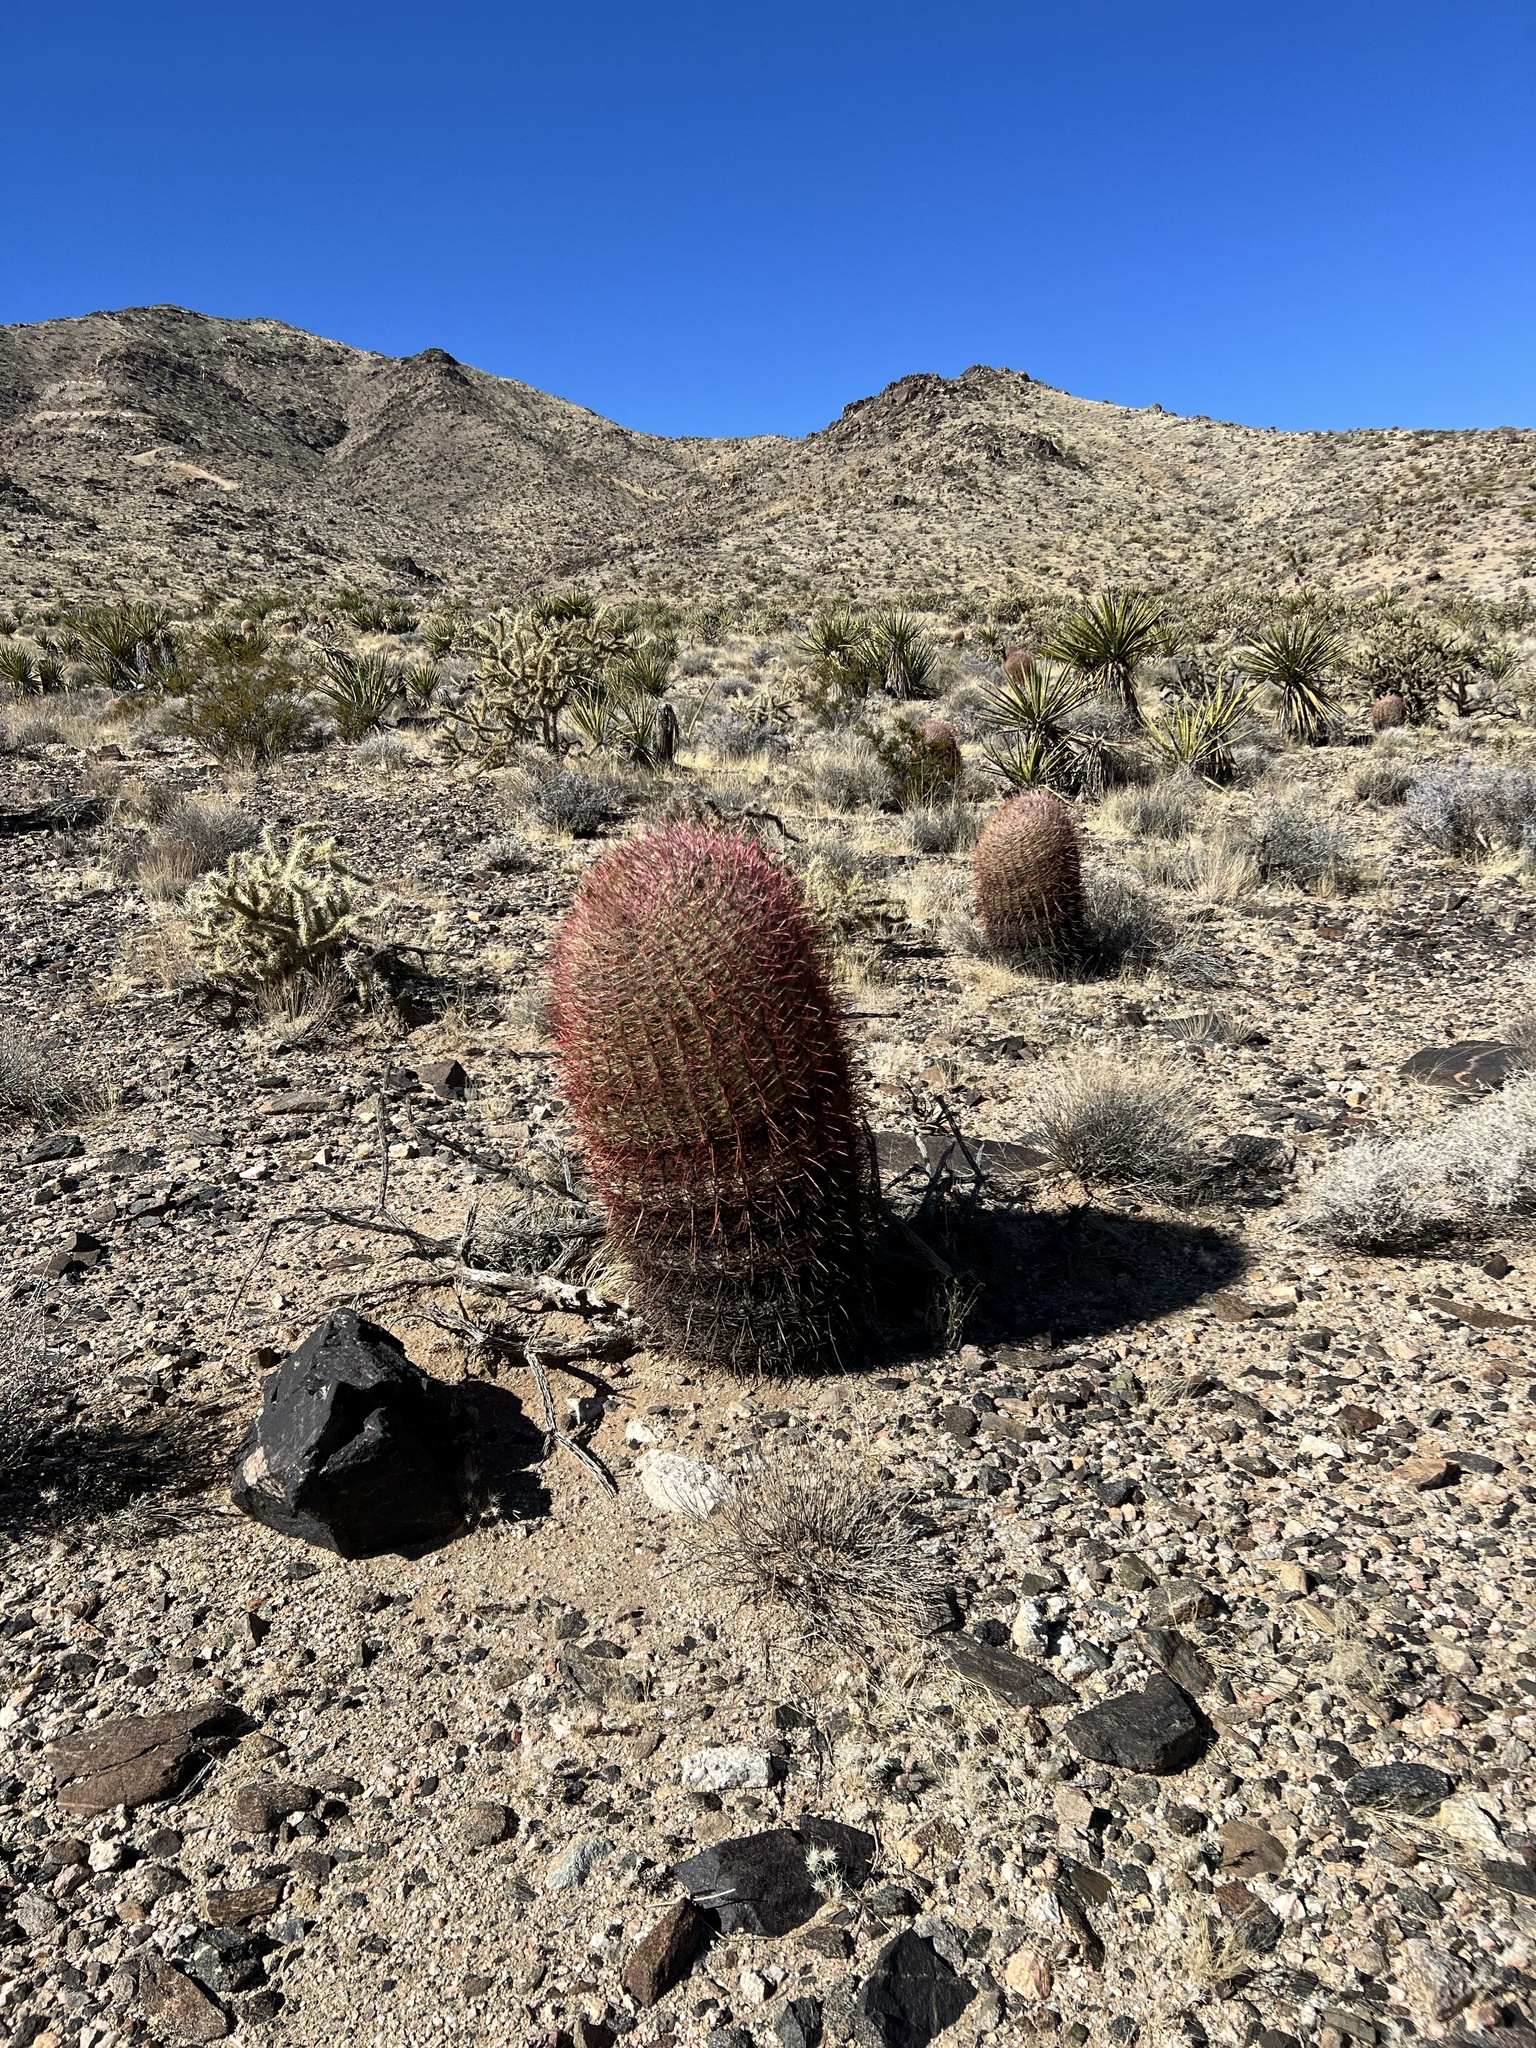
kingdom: Plantae
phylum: Tracheophyta
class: Magnoliopsida
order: Caryophyllales
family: Cactaceae
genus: Ferocactus
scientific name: Ferocactus cylindraceus
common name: California barrel cactus
